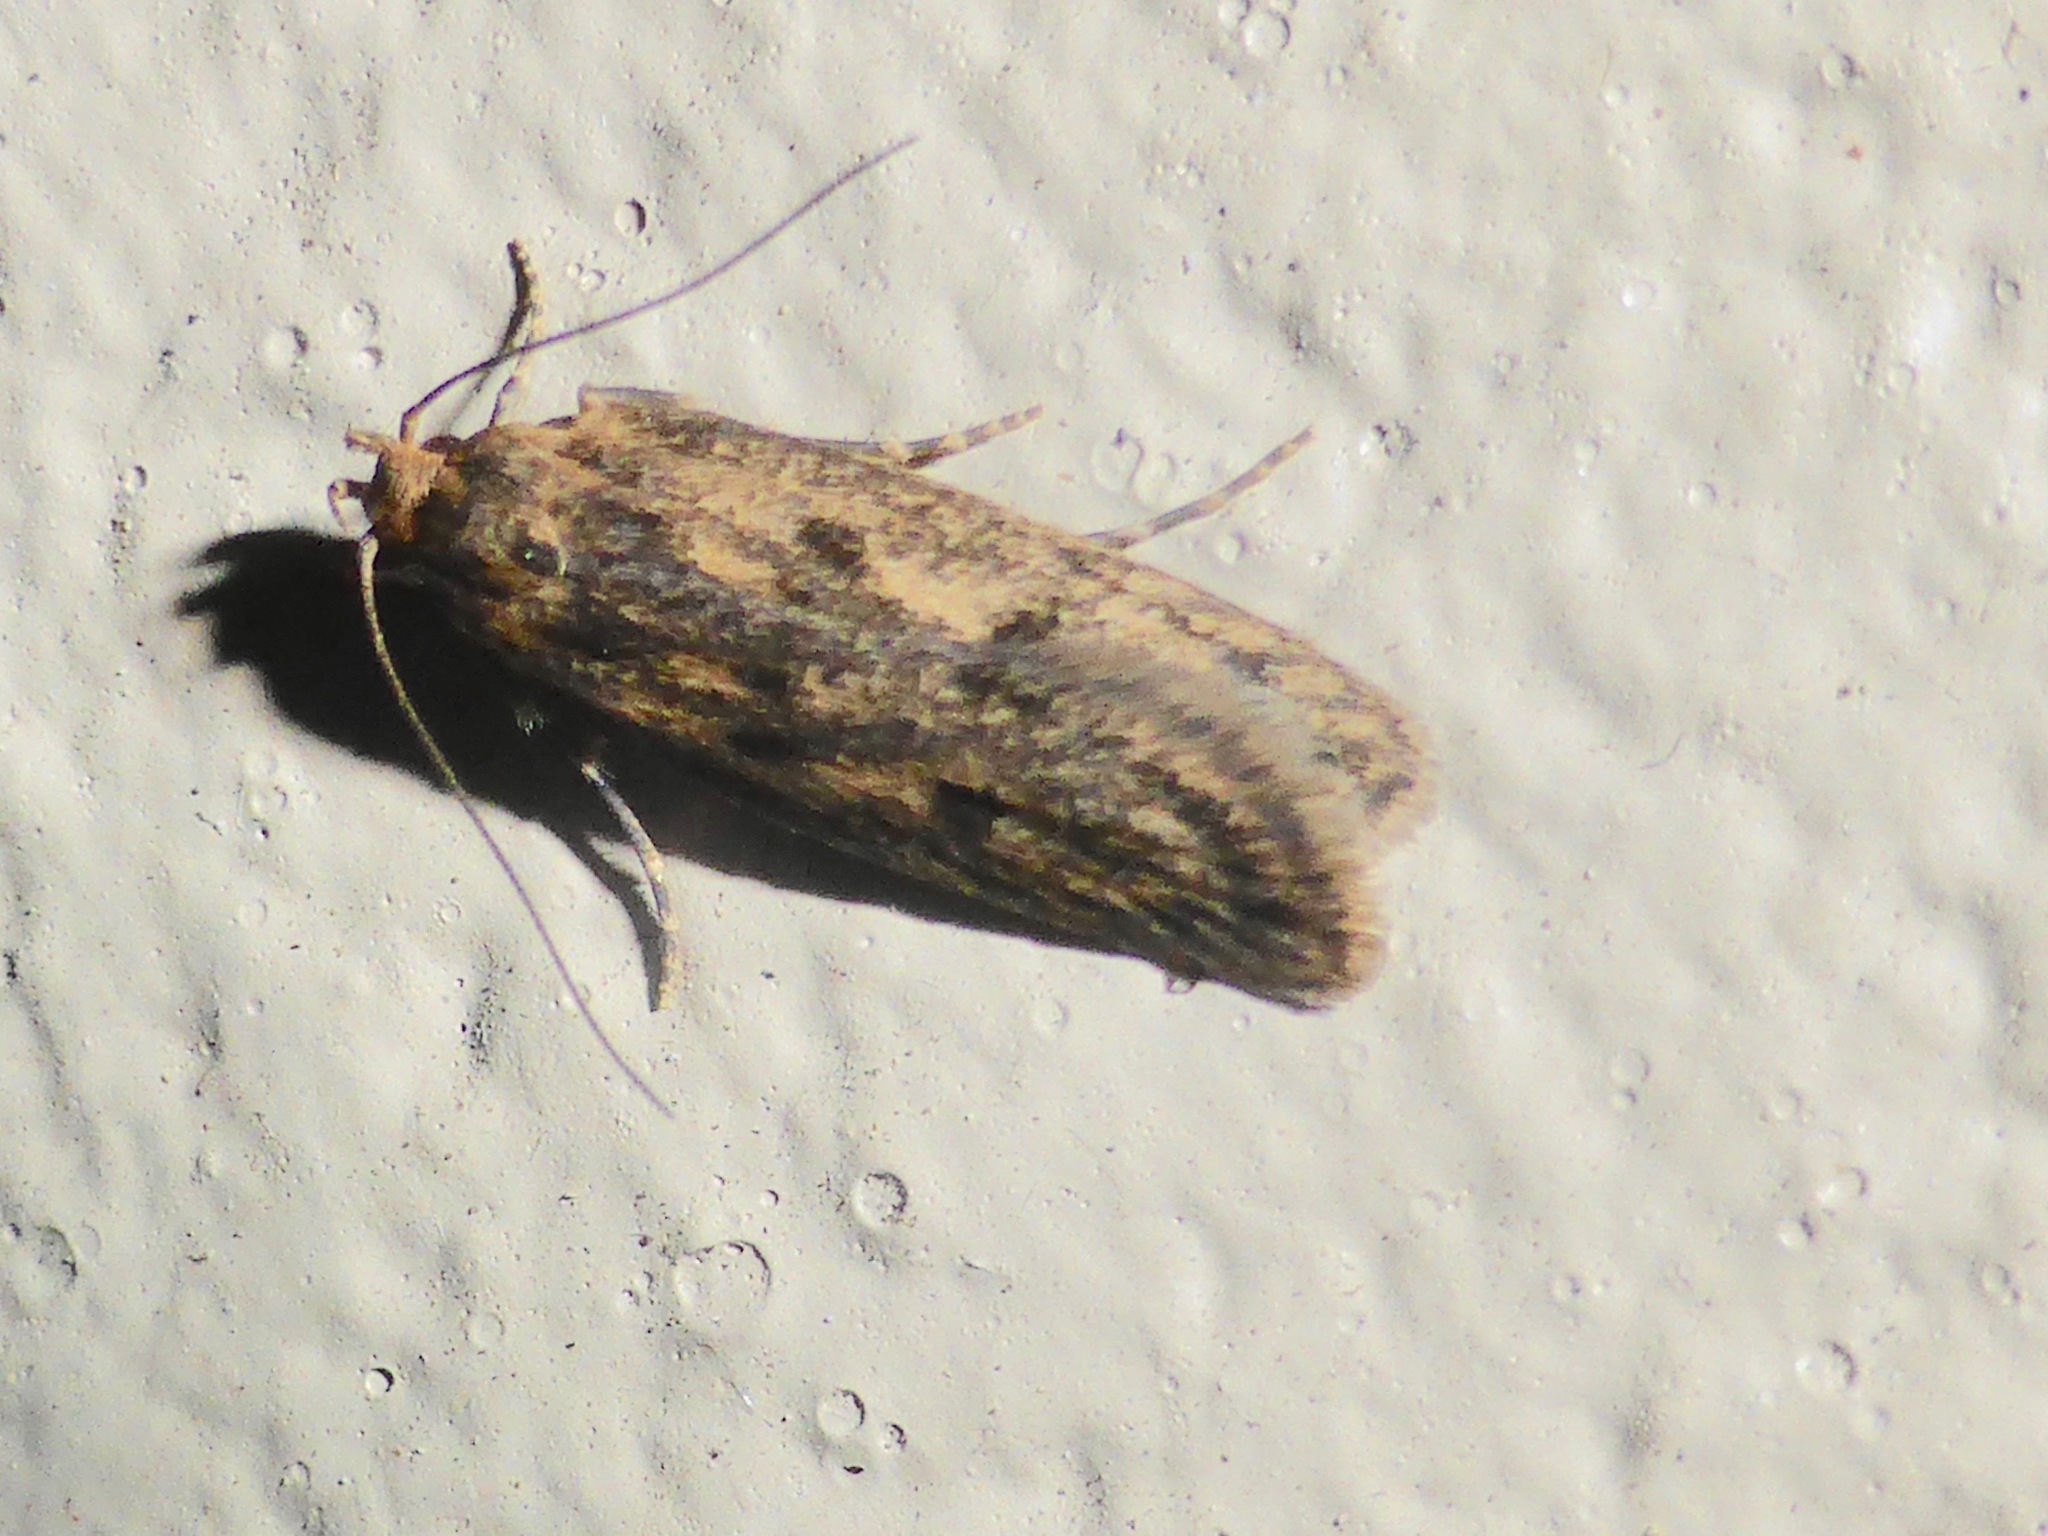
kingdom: Animalia
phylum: Arthropoda
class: Insecta
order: Lepidoptera
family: Oecophoridae
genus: Hofmannophila
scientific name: Hofmannophila pseudospretella
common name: Brown house moth
